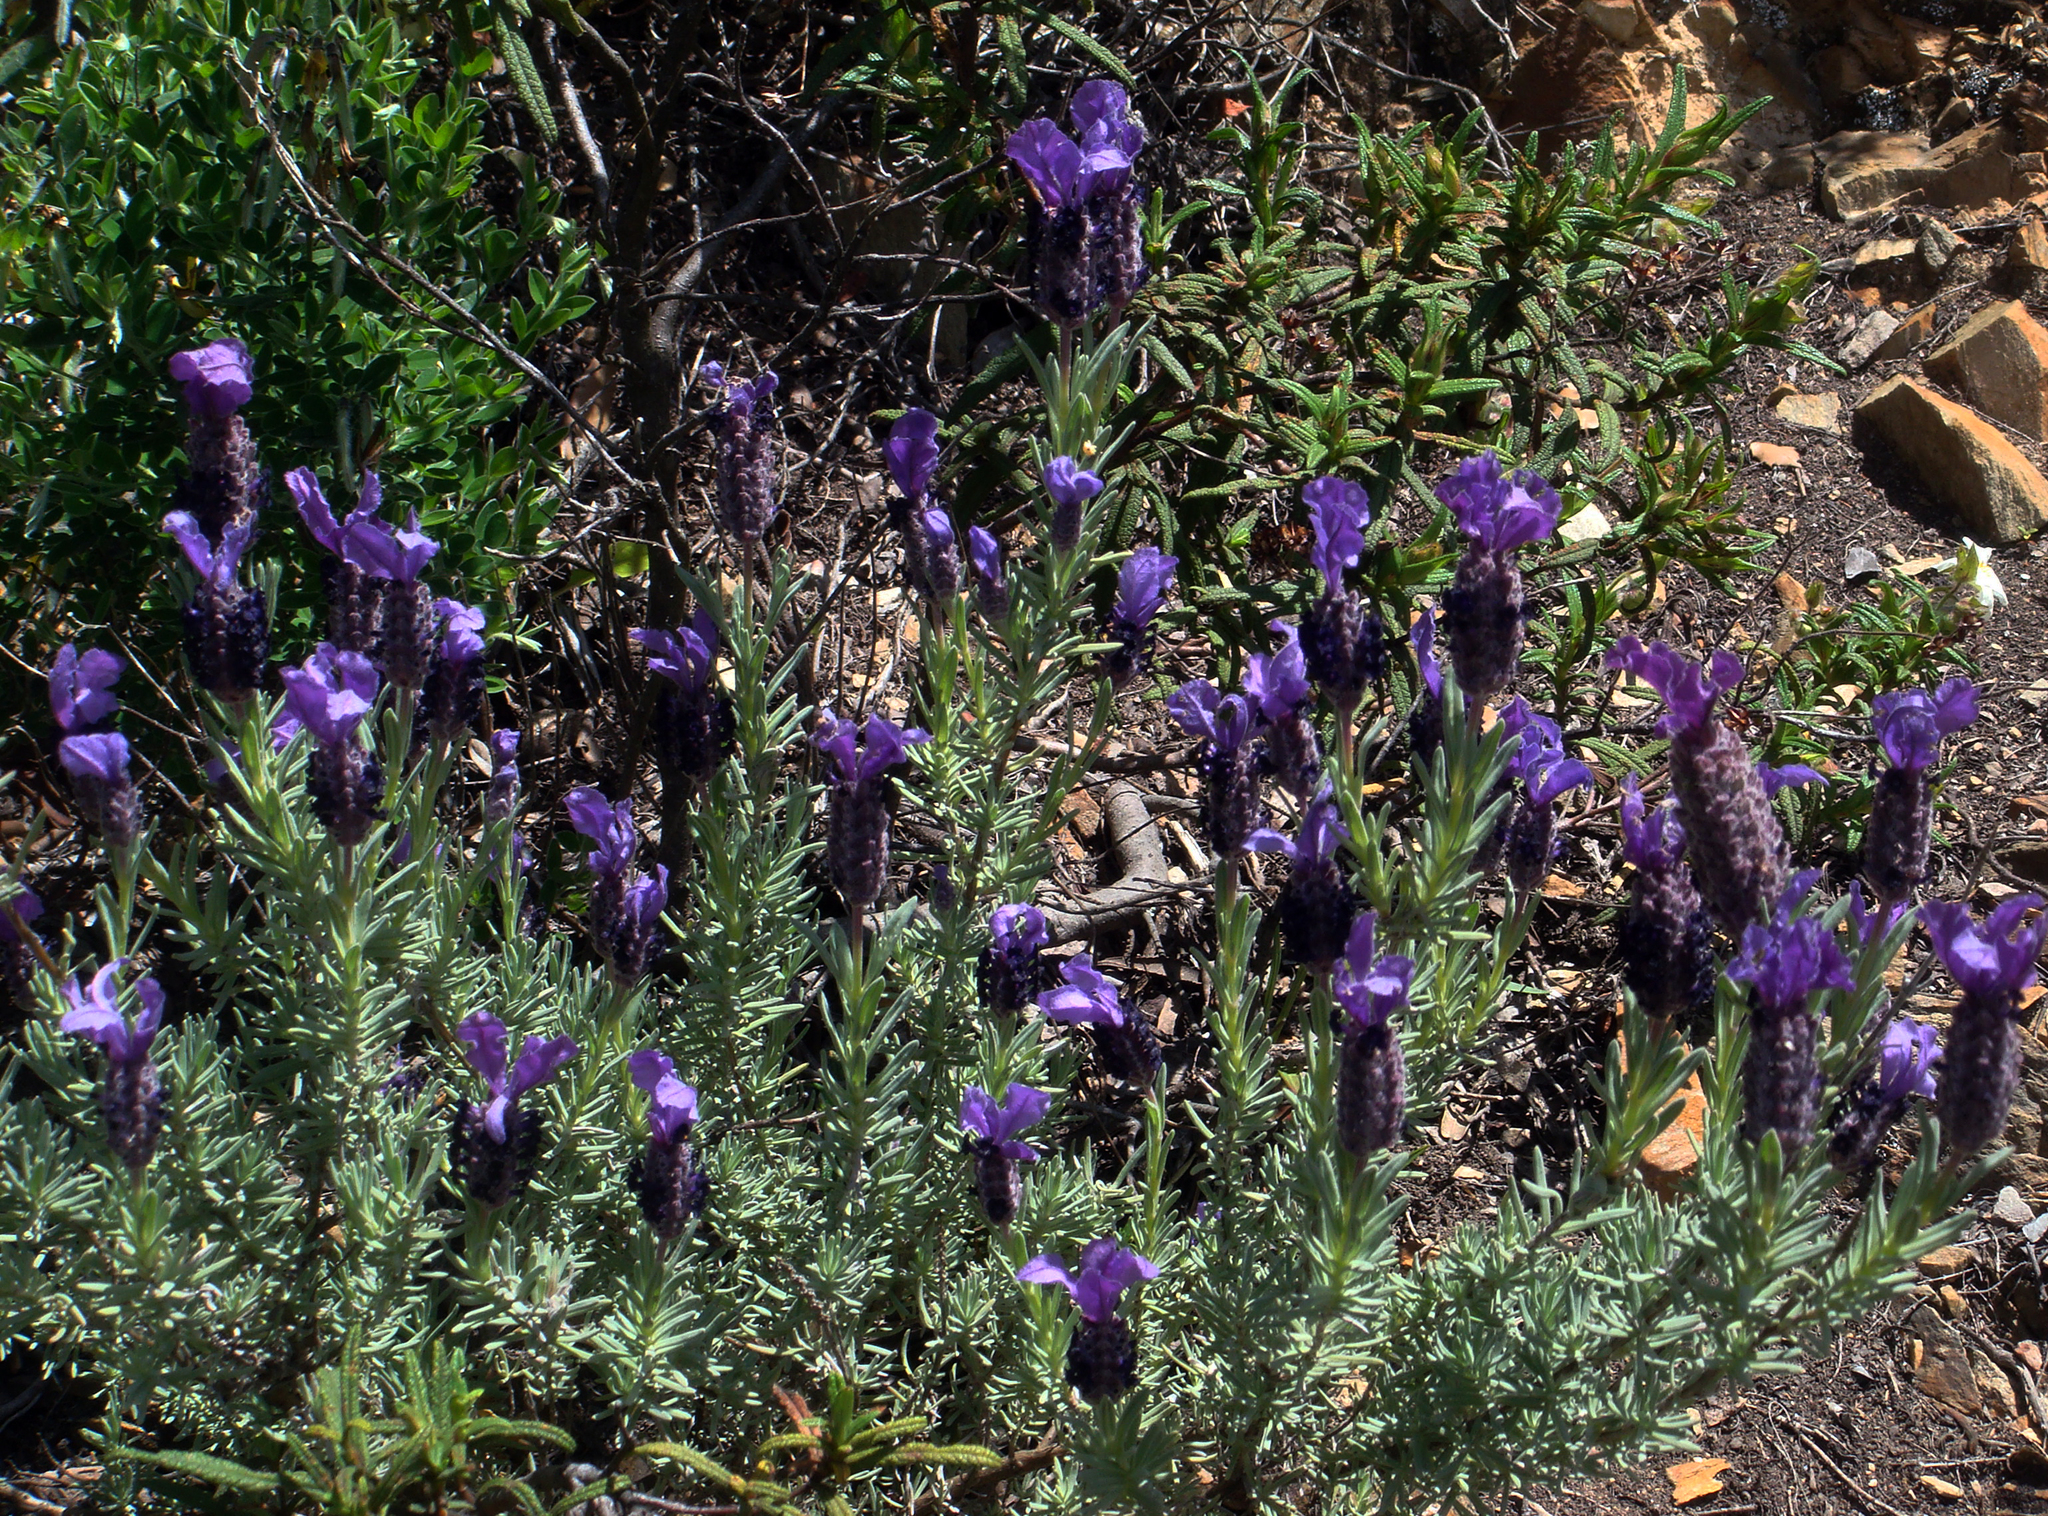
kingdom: Plantae
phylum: Tracheophyta
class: Magnoliopsida
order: Lamiales
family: Lamiaceae
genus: Lavandula
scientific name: Lavandula stoechas
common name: French lavender
